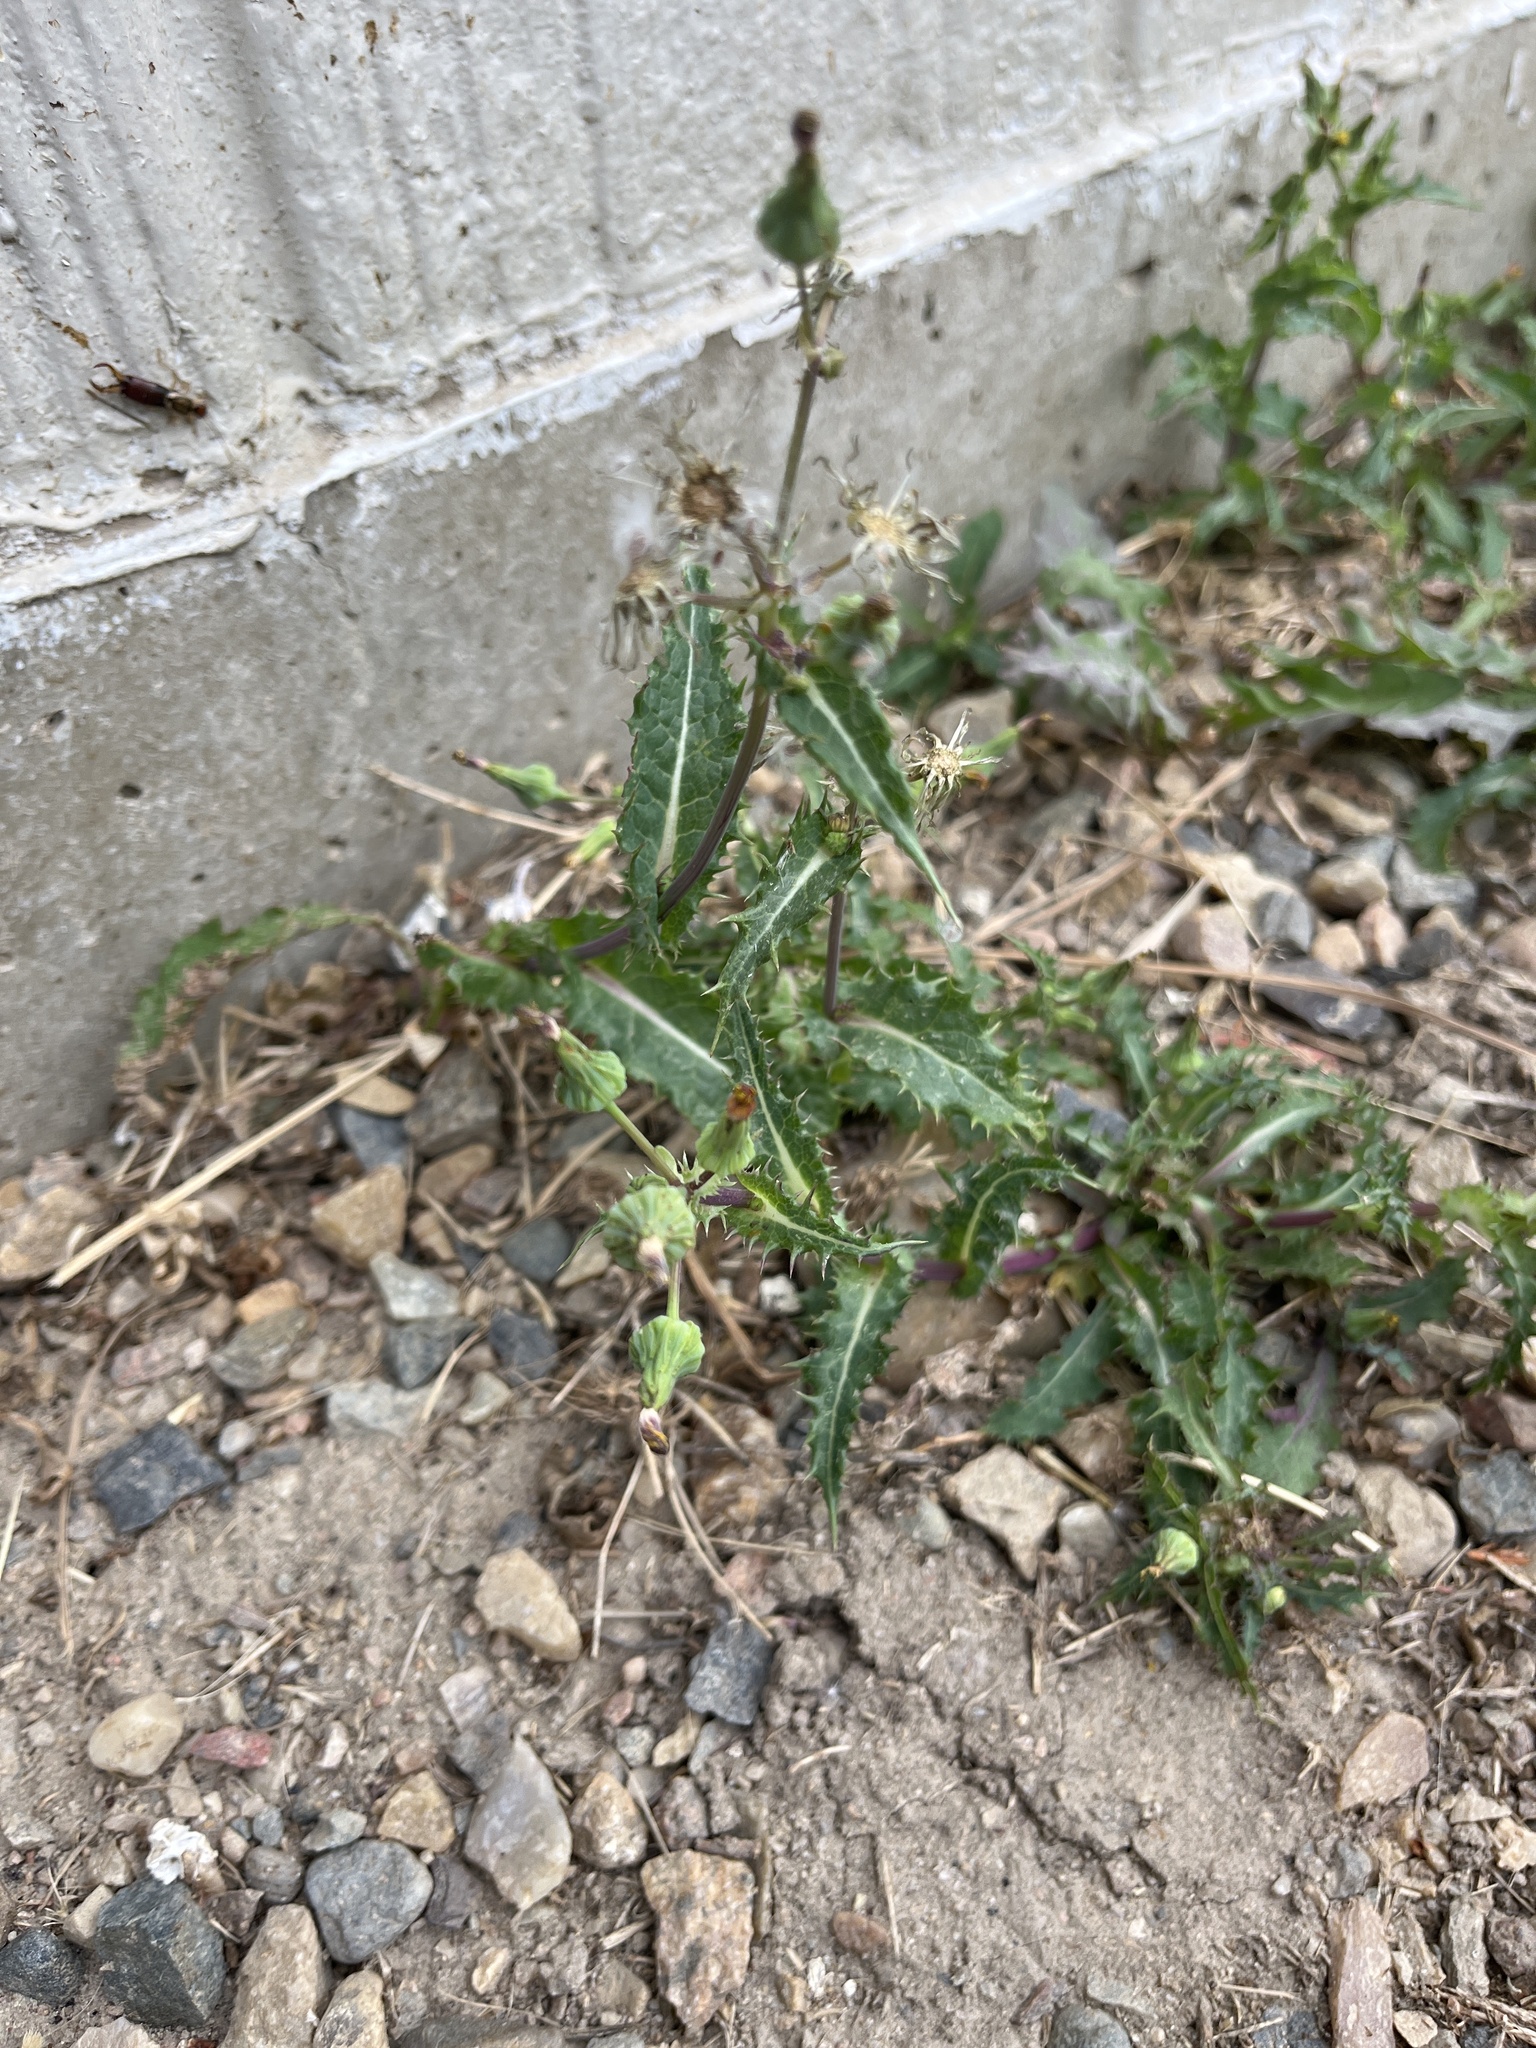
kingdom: Plantae
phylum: Tracheophyta
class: Magnoliopsida
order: Asterales
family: Asteraceae
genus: Sonchus
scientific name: Sonchus asper
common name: Prickly sow-thistle
